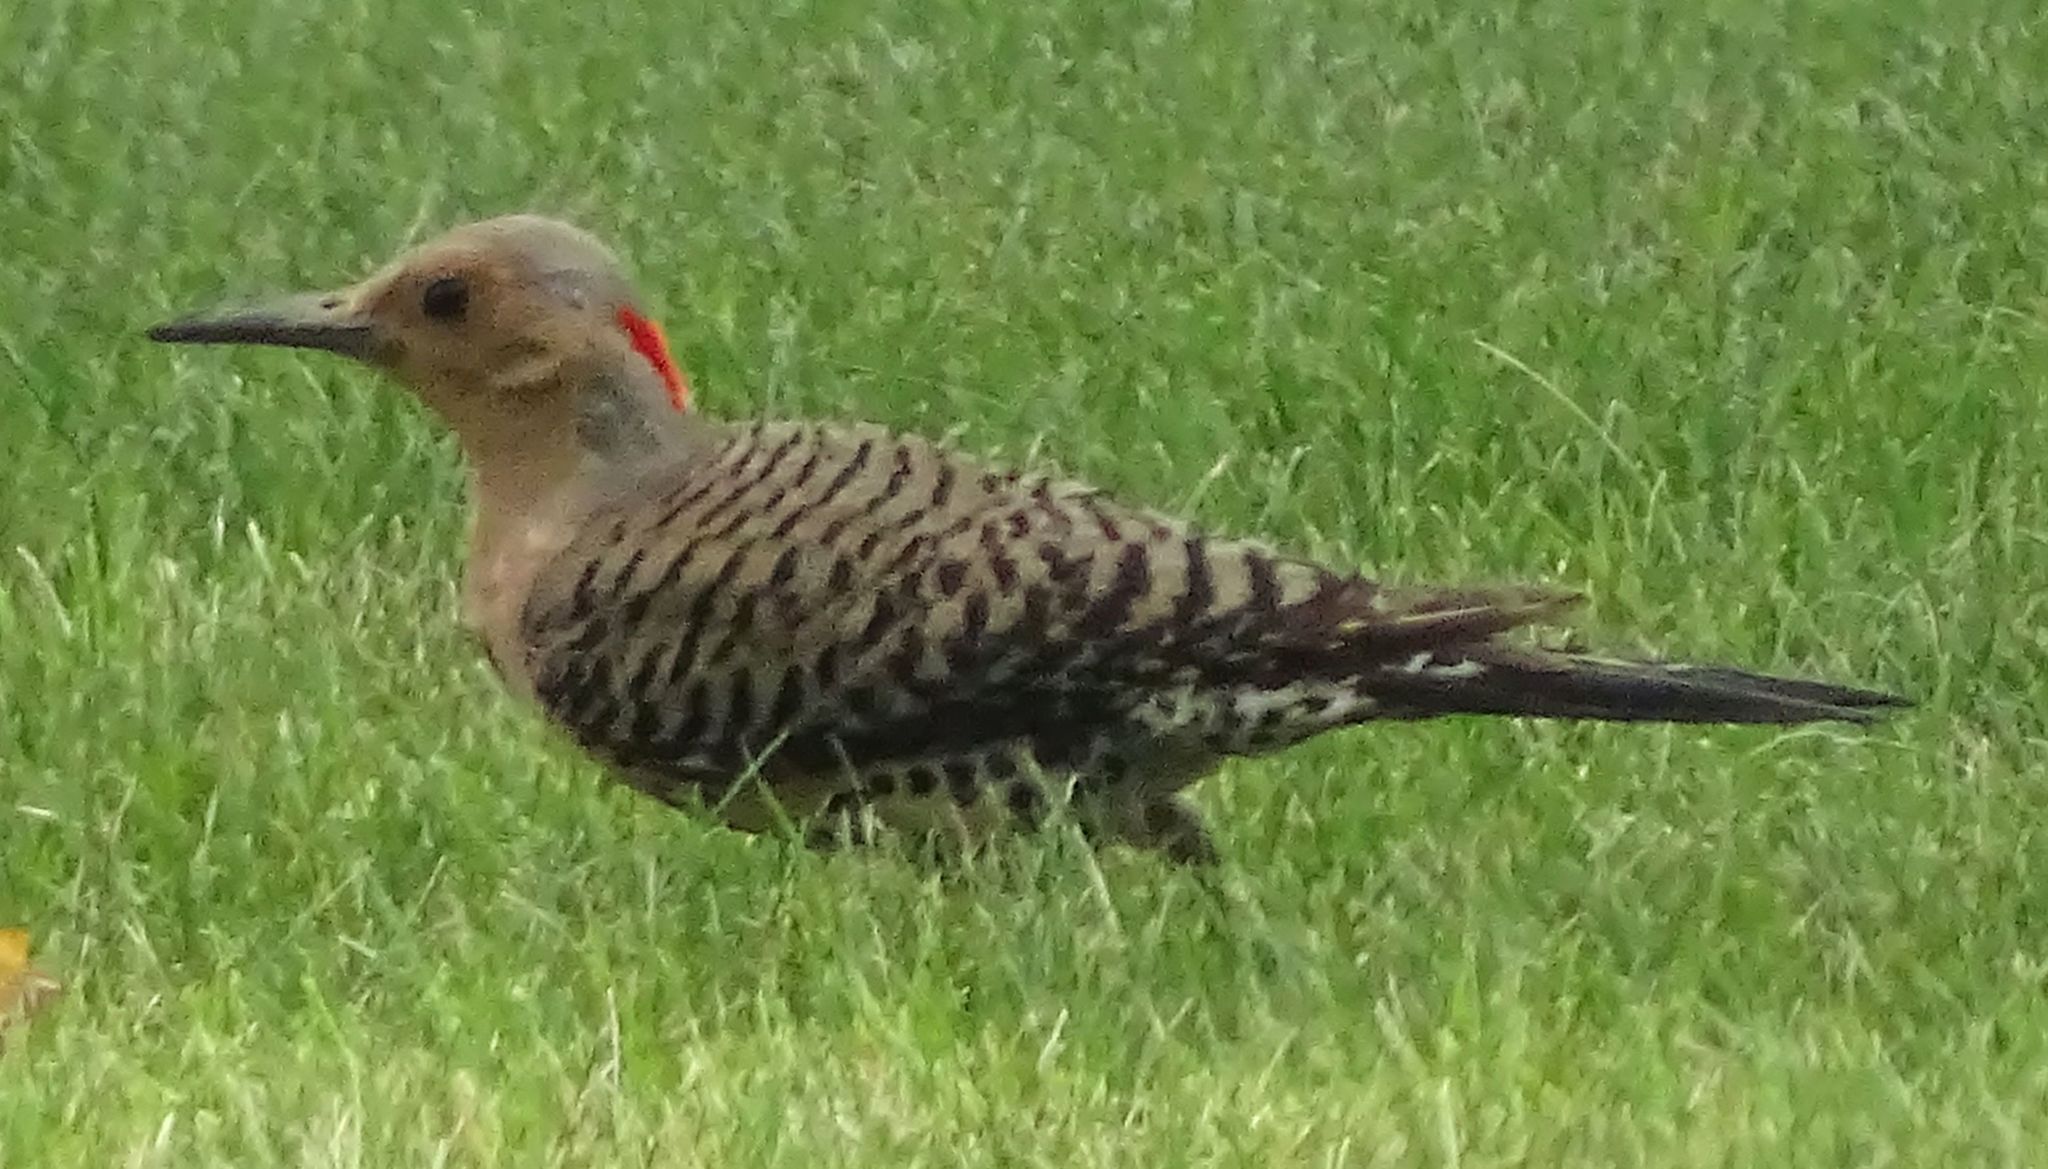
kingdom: Animalia
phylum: Chordata
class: Aves
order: Piciformes
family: Picidae
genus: Colaptes
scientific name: Colaptes auratus
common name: Northern flicker
